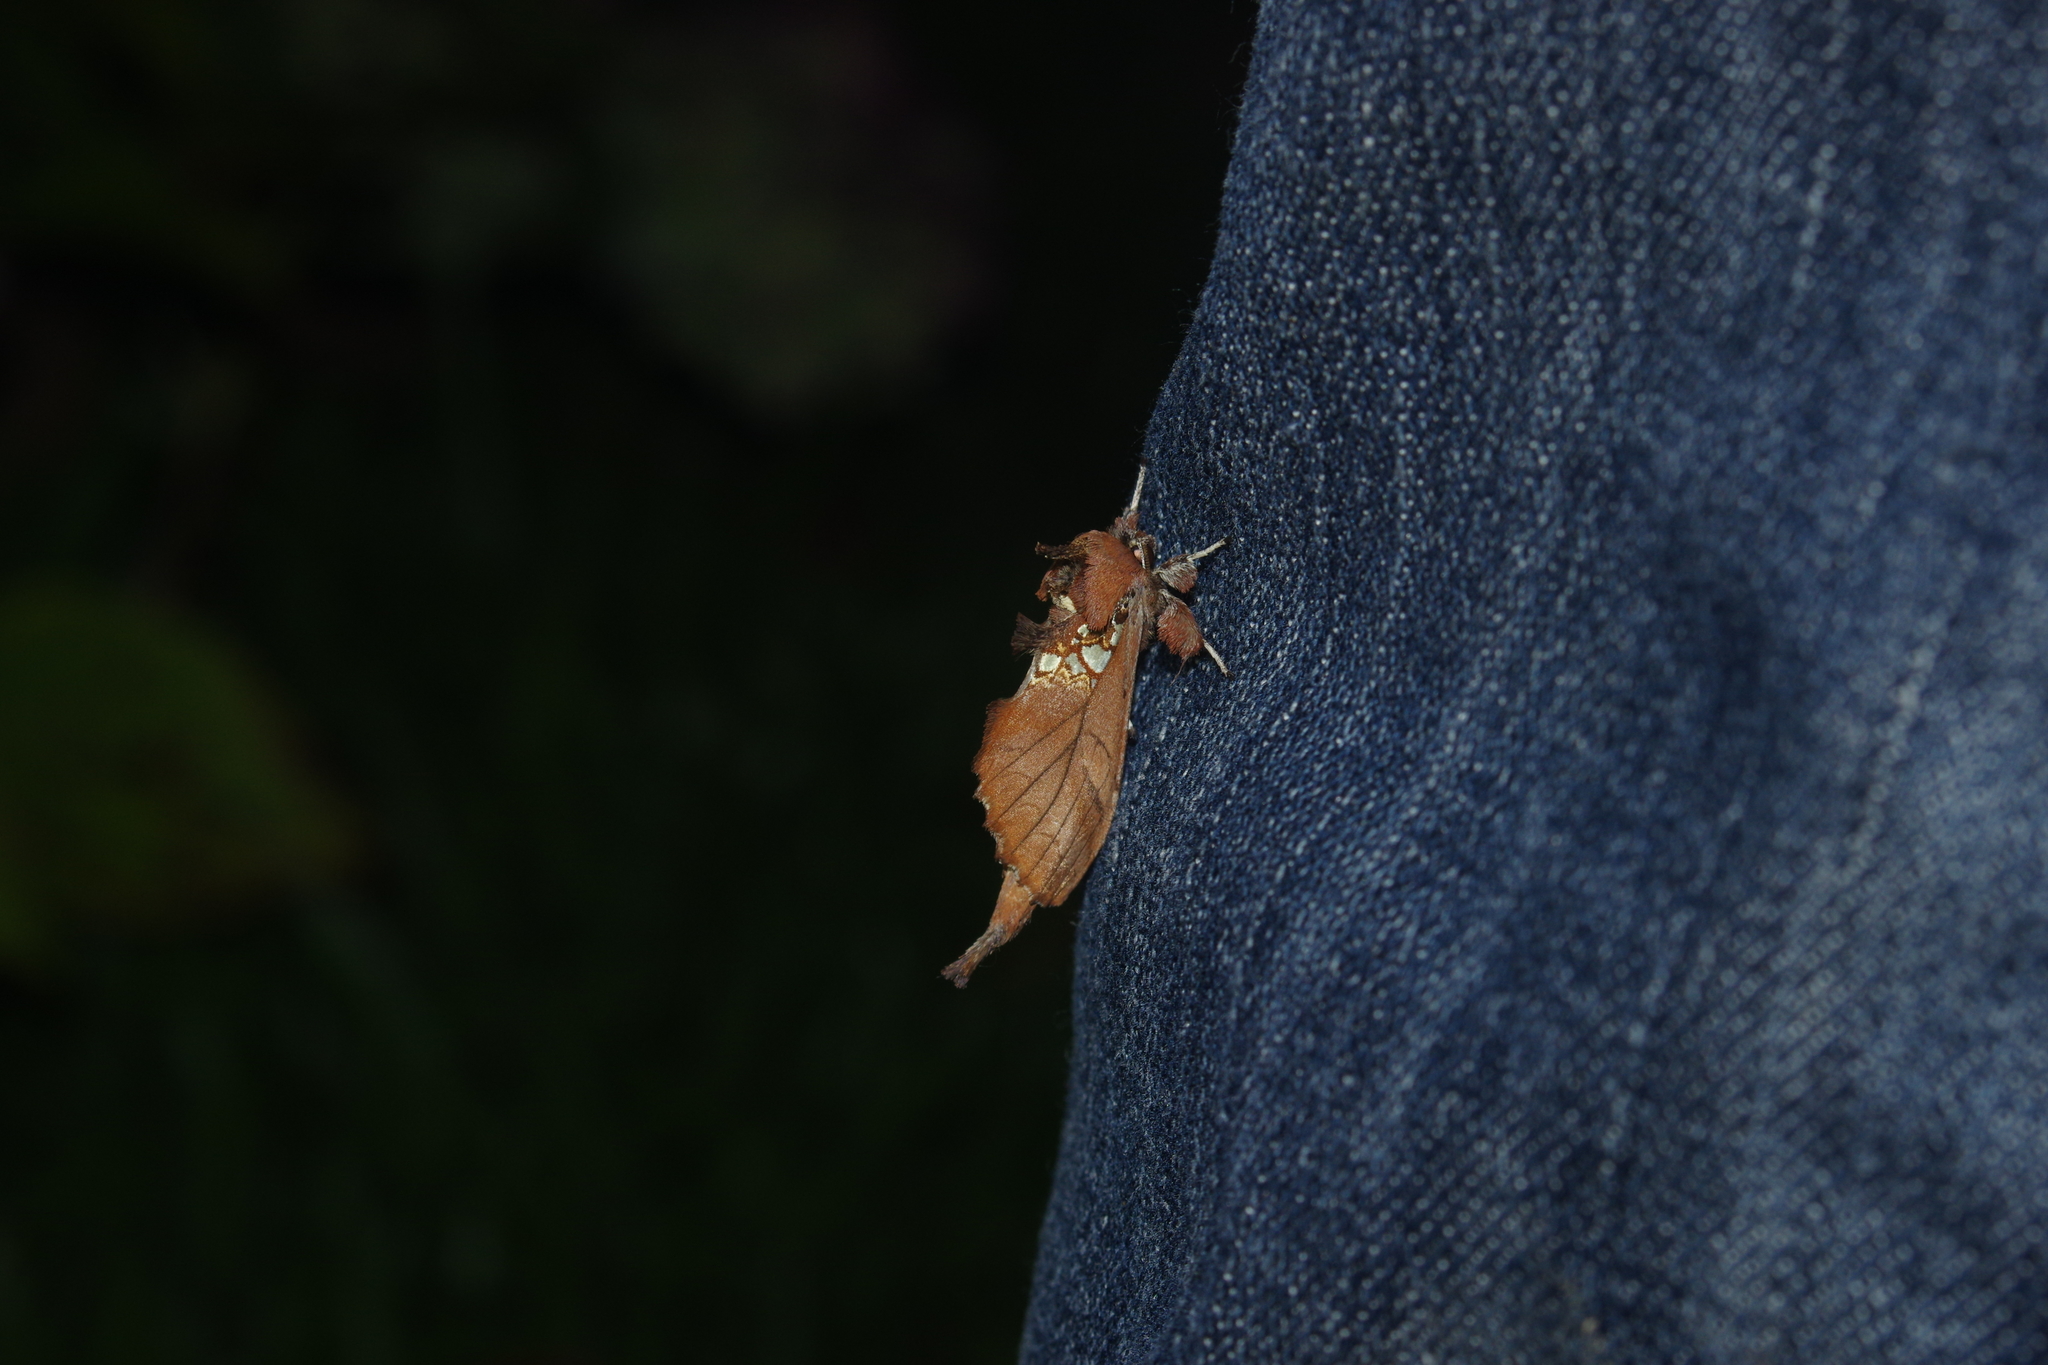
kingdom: Animalia
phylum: Arthropoda
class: Insecta
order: Lepidoptera
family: Notodontidae
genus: Spatalia
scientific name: Spatalia dives
